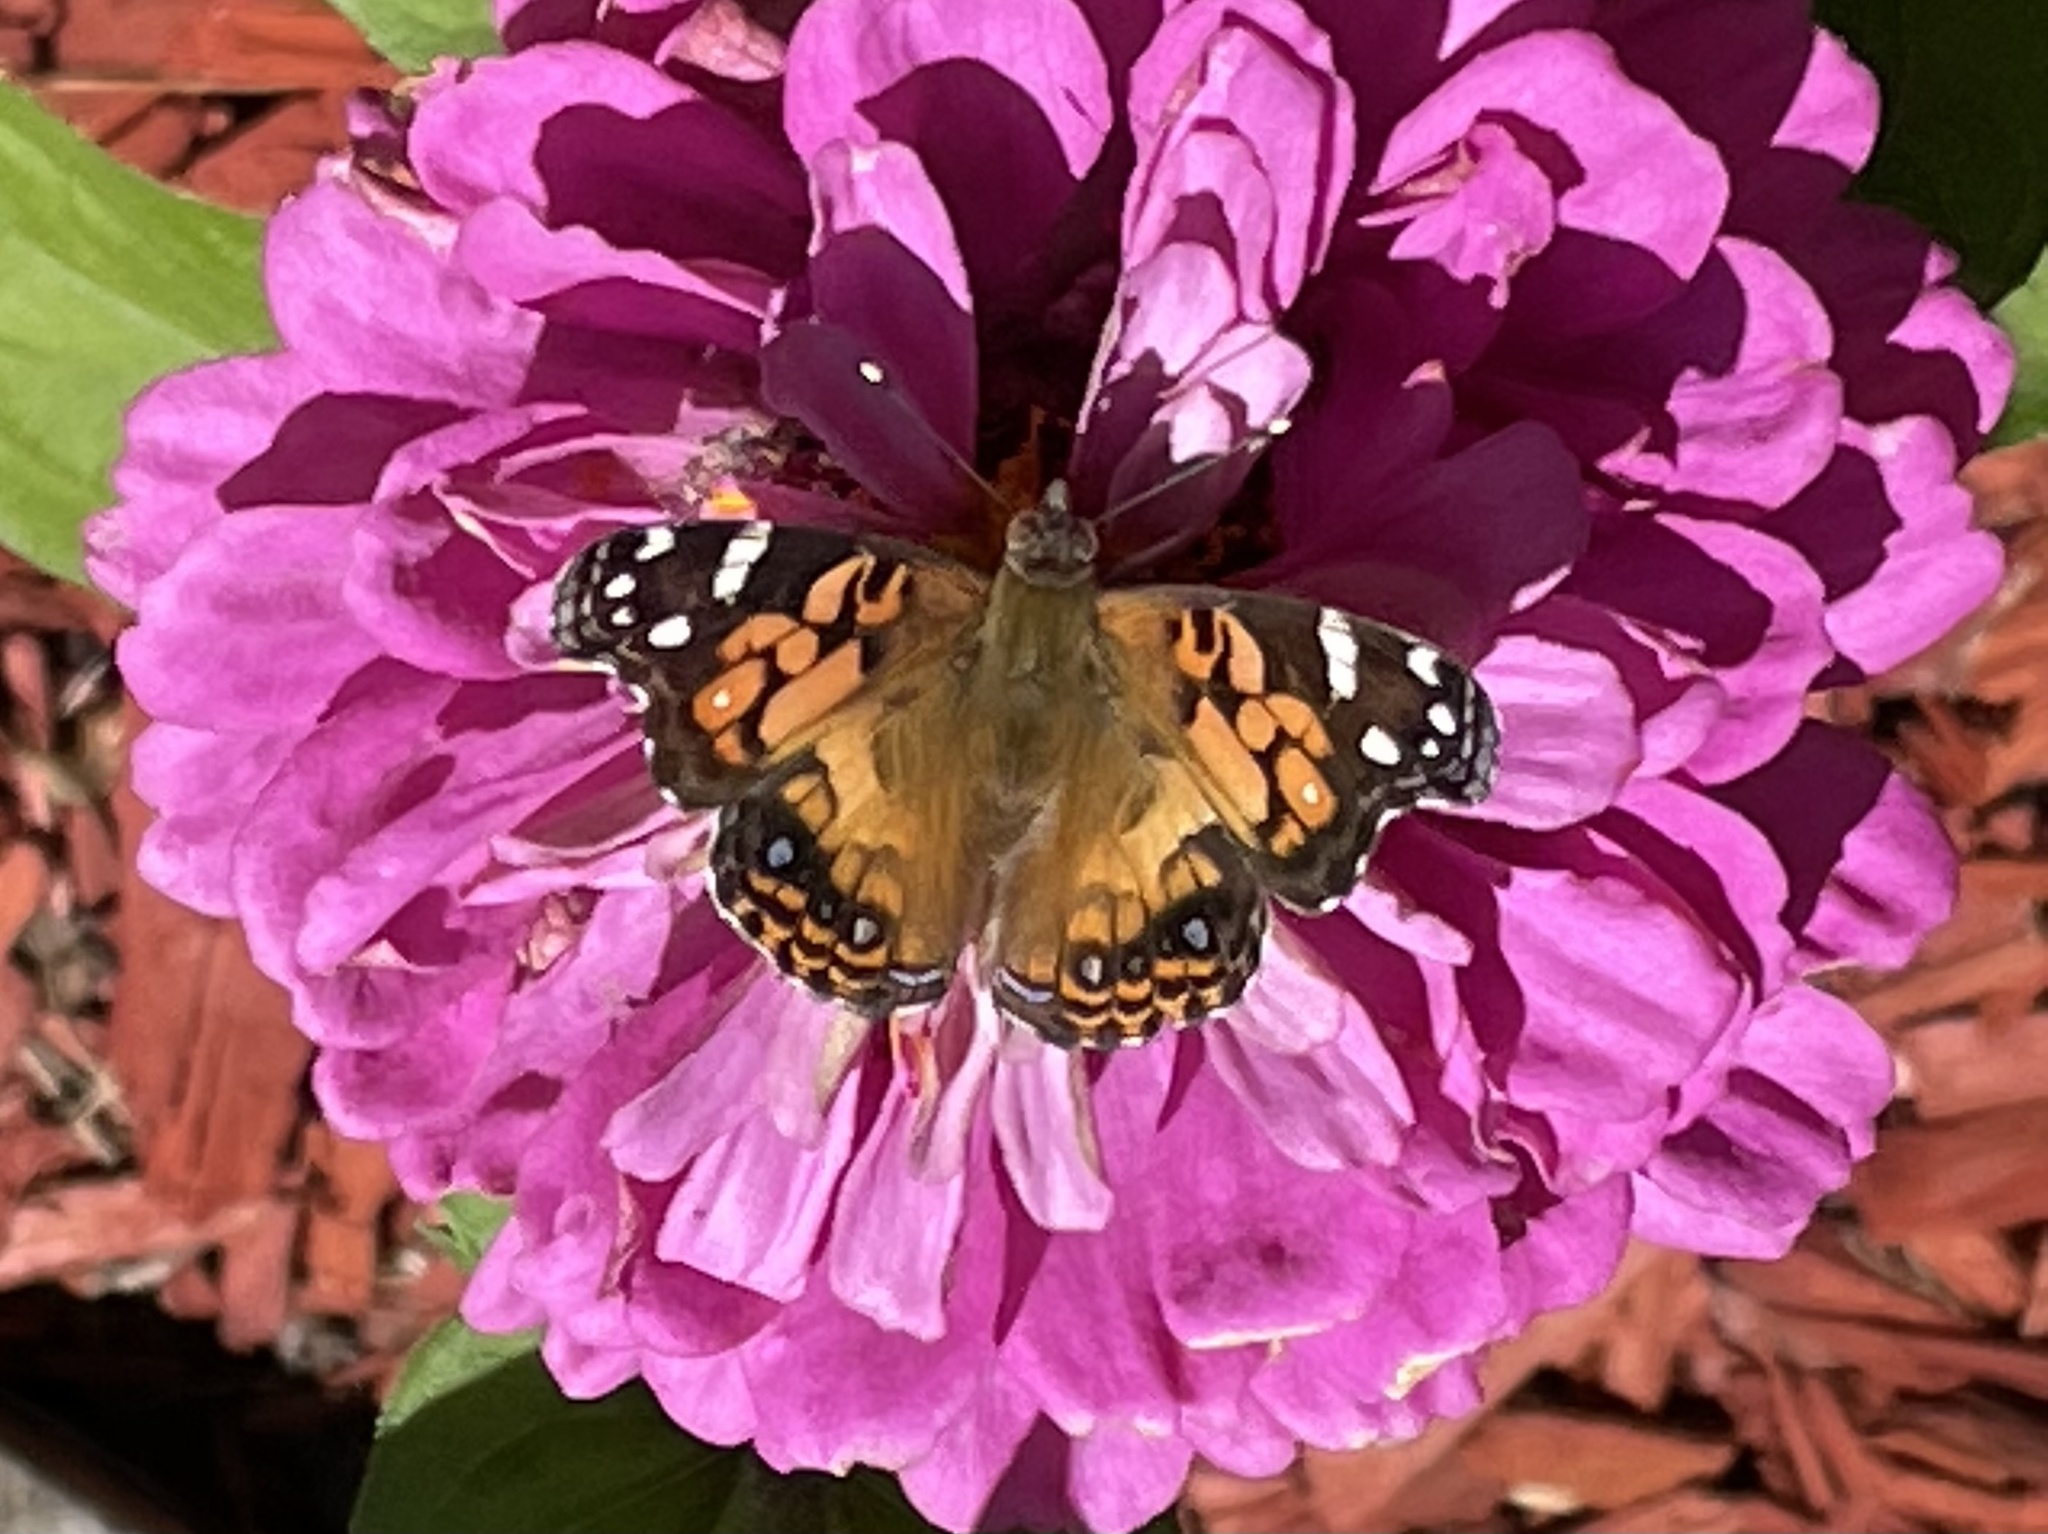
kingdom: Animalia
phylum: Arthropoda
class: Insecta
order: Lepidoptera
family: Nymphalidae
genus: Vanessa
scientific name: Vanessa virginiensis
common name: American lady
